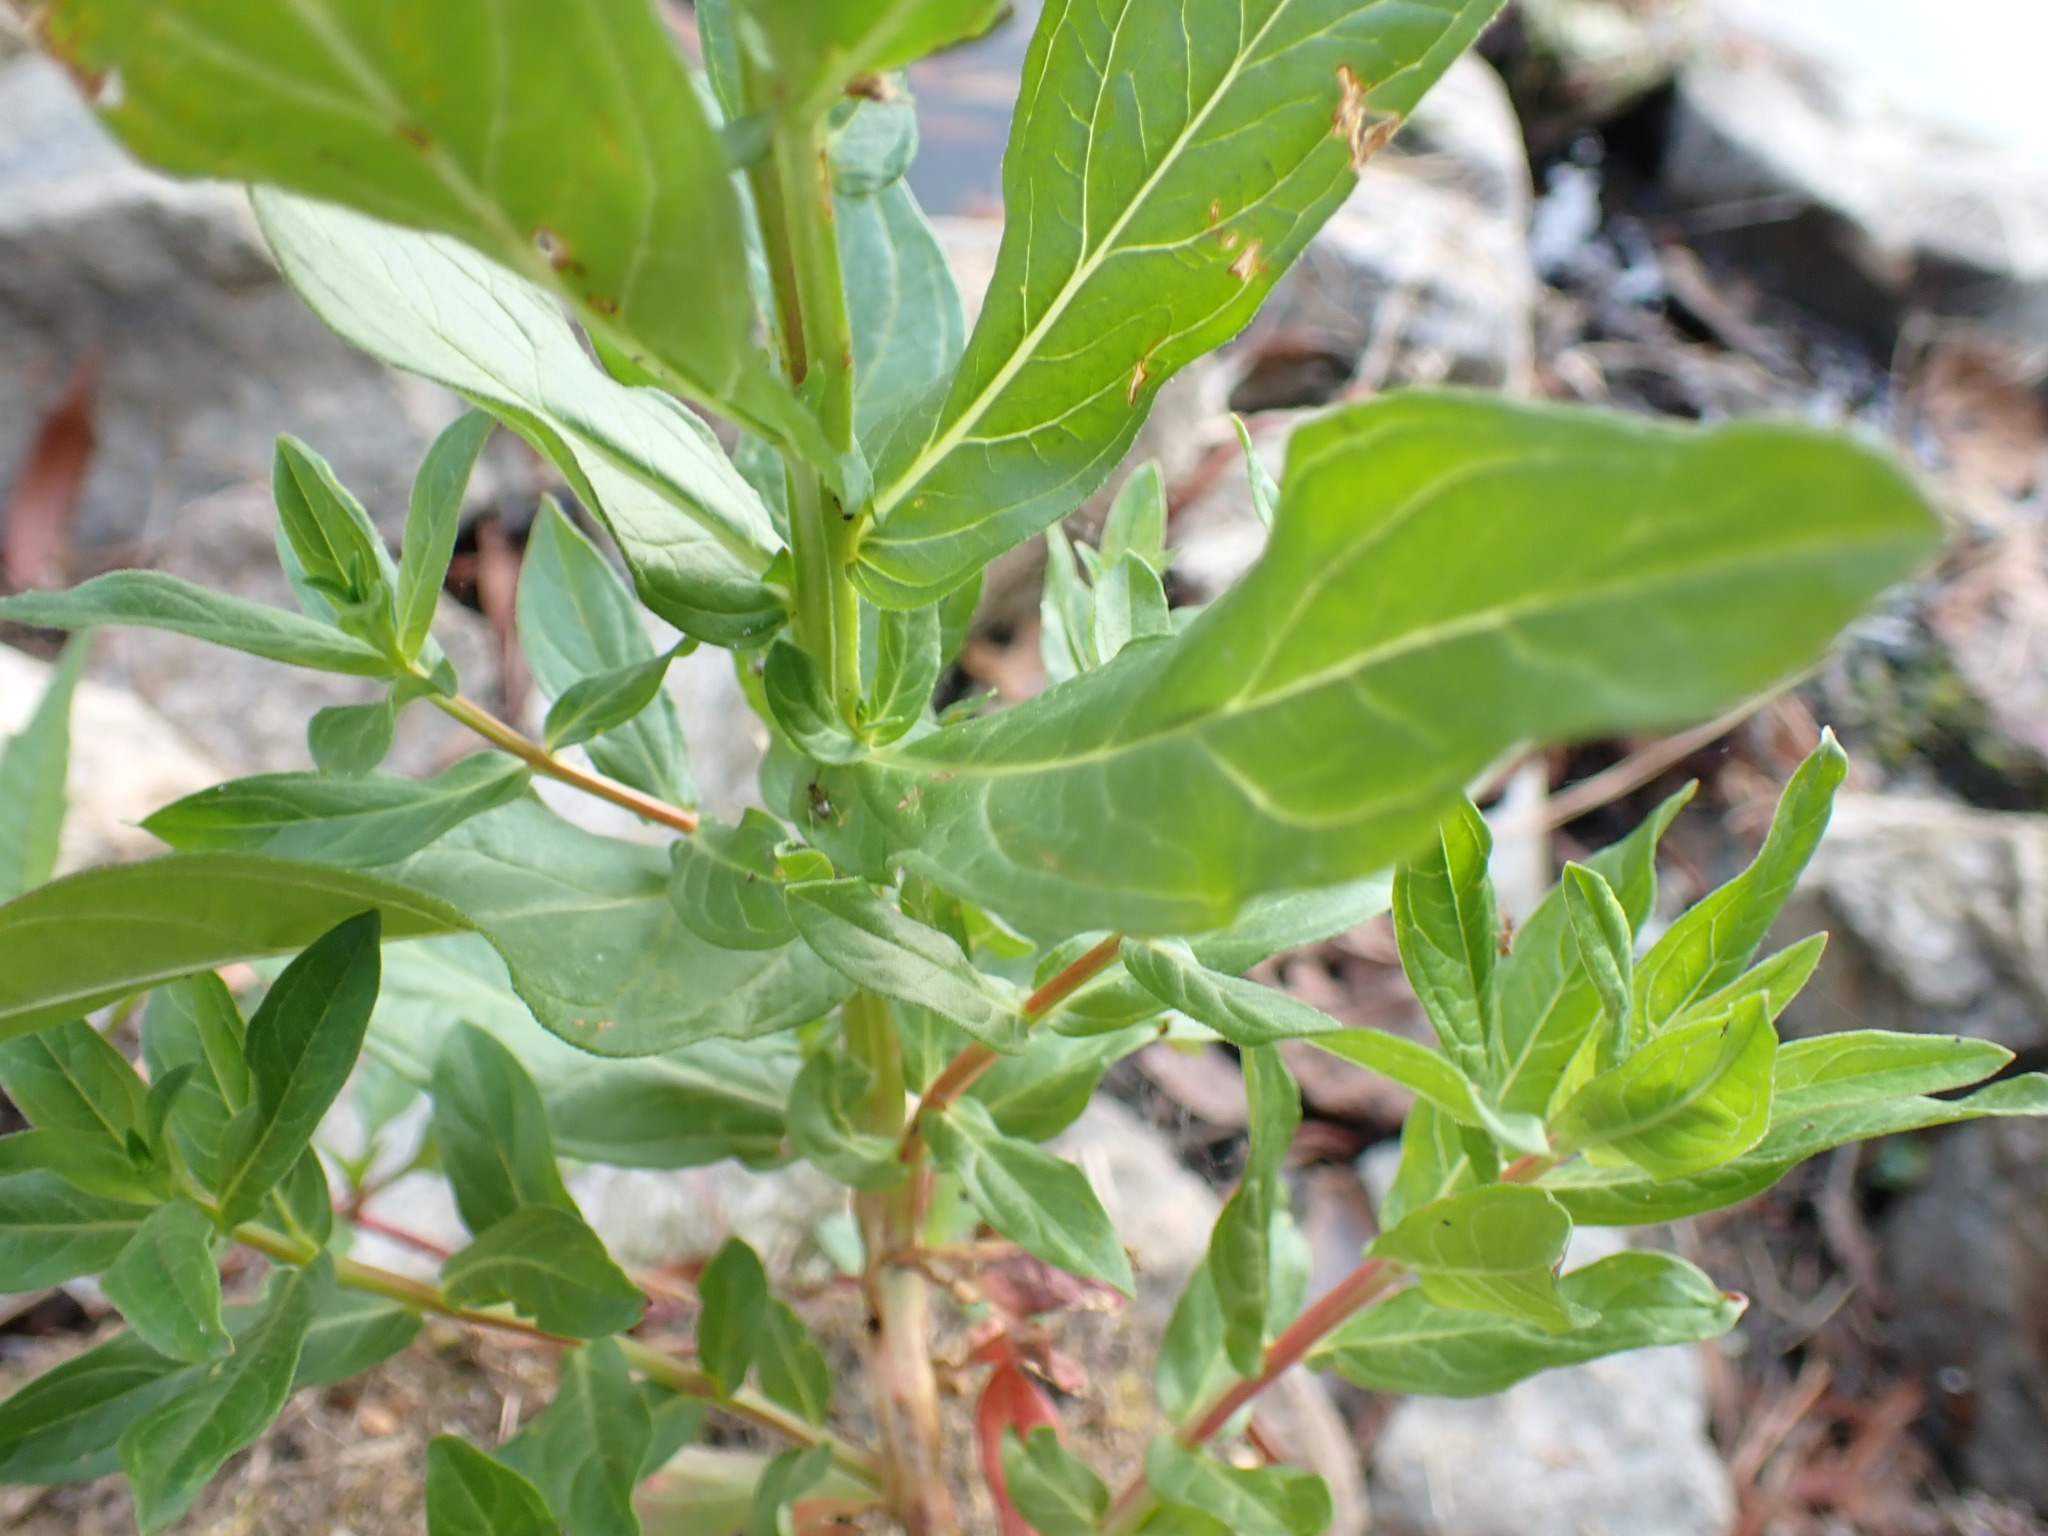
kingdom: Plantae
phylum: Tracheophyta
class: Magnoliopsida
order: Myrtales
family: Lythraceae
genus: Lythrum
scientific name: Lythrum salicaria
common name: Purple loosestrife
